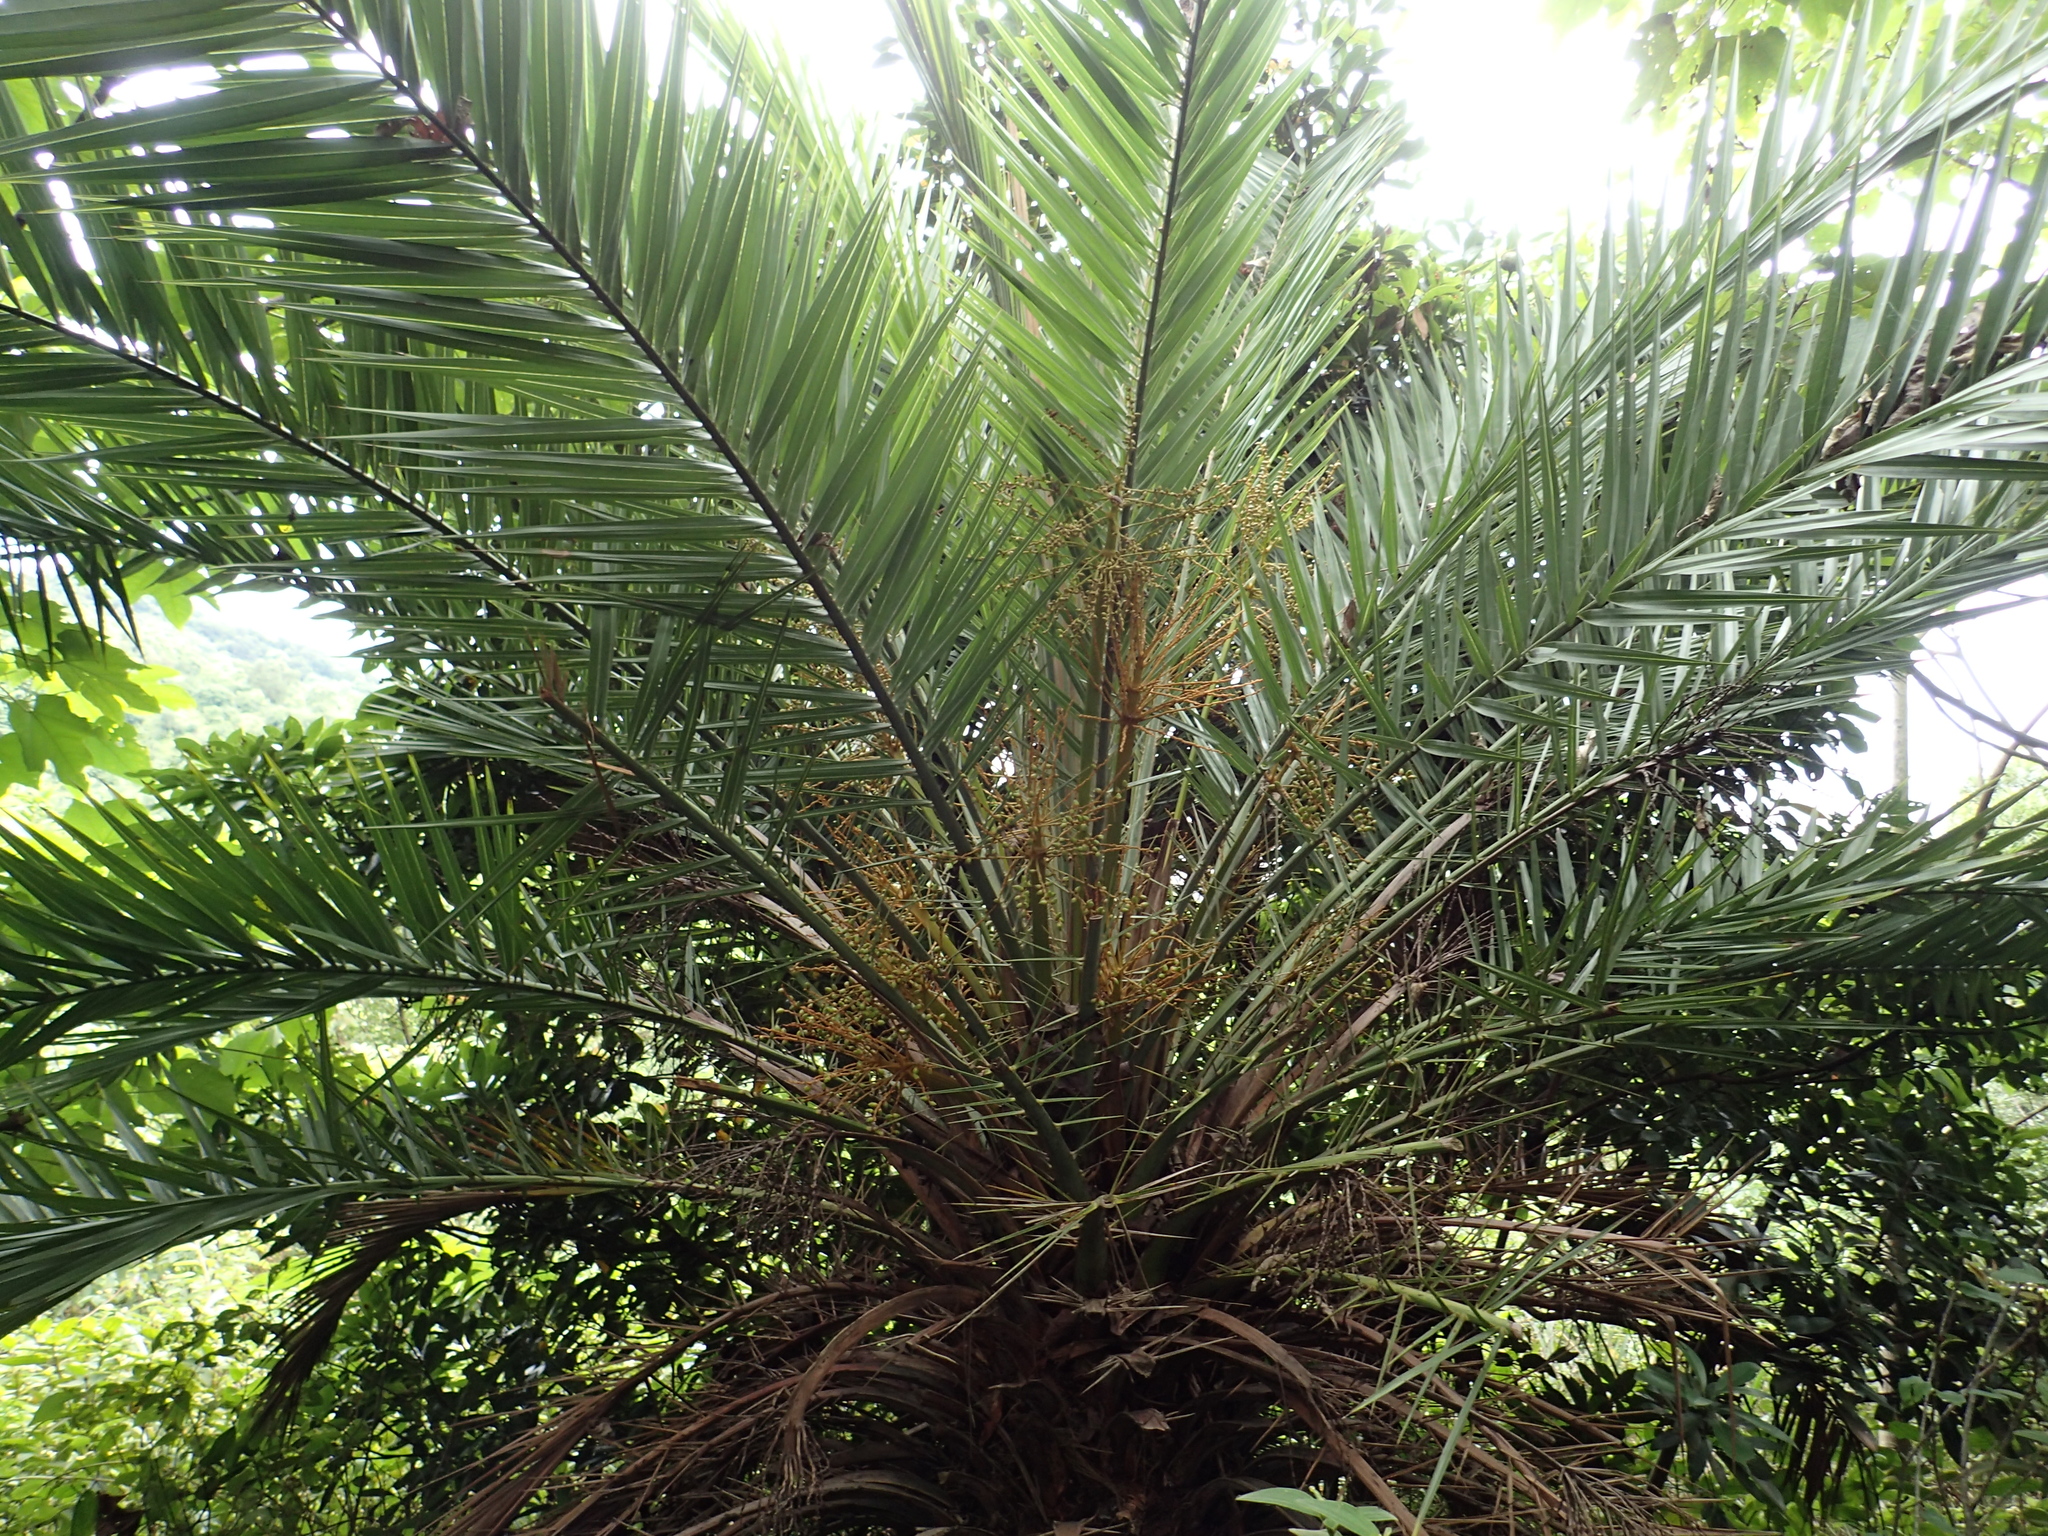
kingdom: Plantae
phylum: Tracheophyta
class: Liliopsida
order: Arecales
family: Arecaceae
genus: Phoenix
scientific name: Phoenix loureiroi
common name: Loureiro's palm
